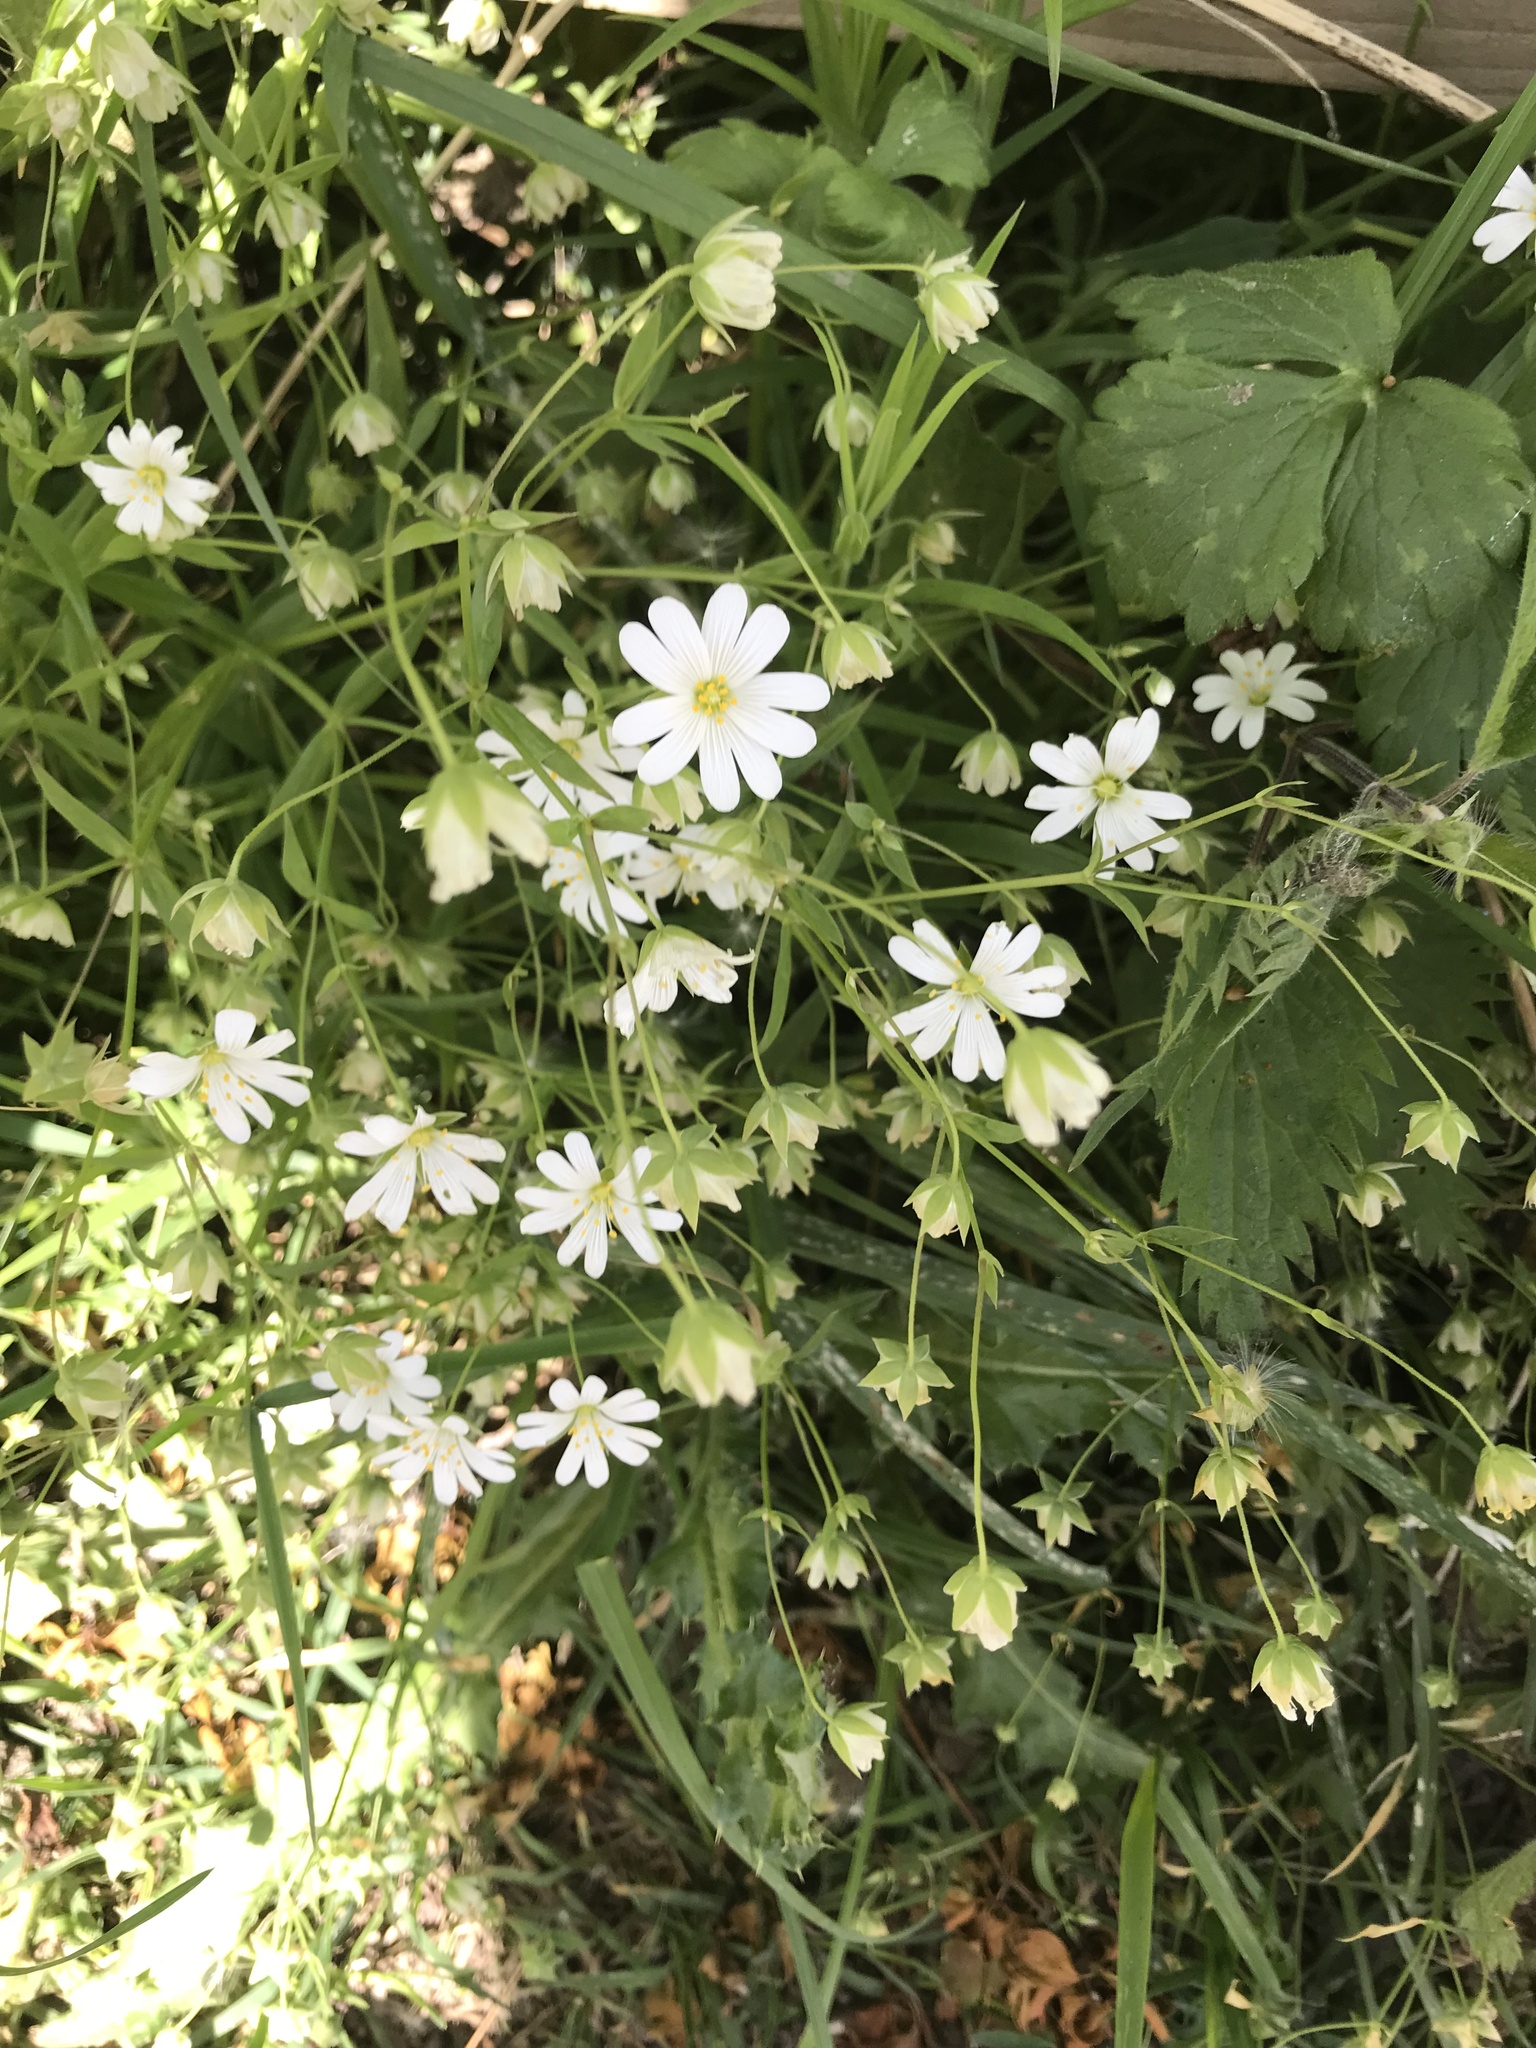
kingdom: Plantae
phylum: Tracheophyta
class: Magnoliopsida
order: Caryophyllales
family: Caryophyllaceae
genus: Rabelera
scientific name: Rabelera holostea
